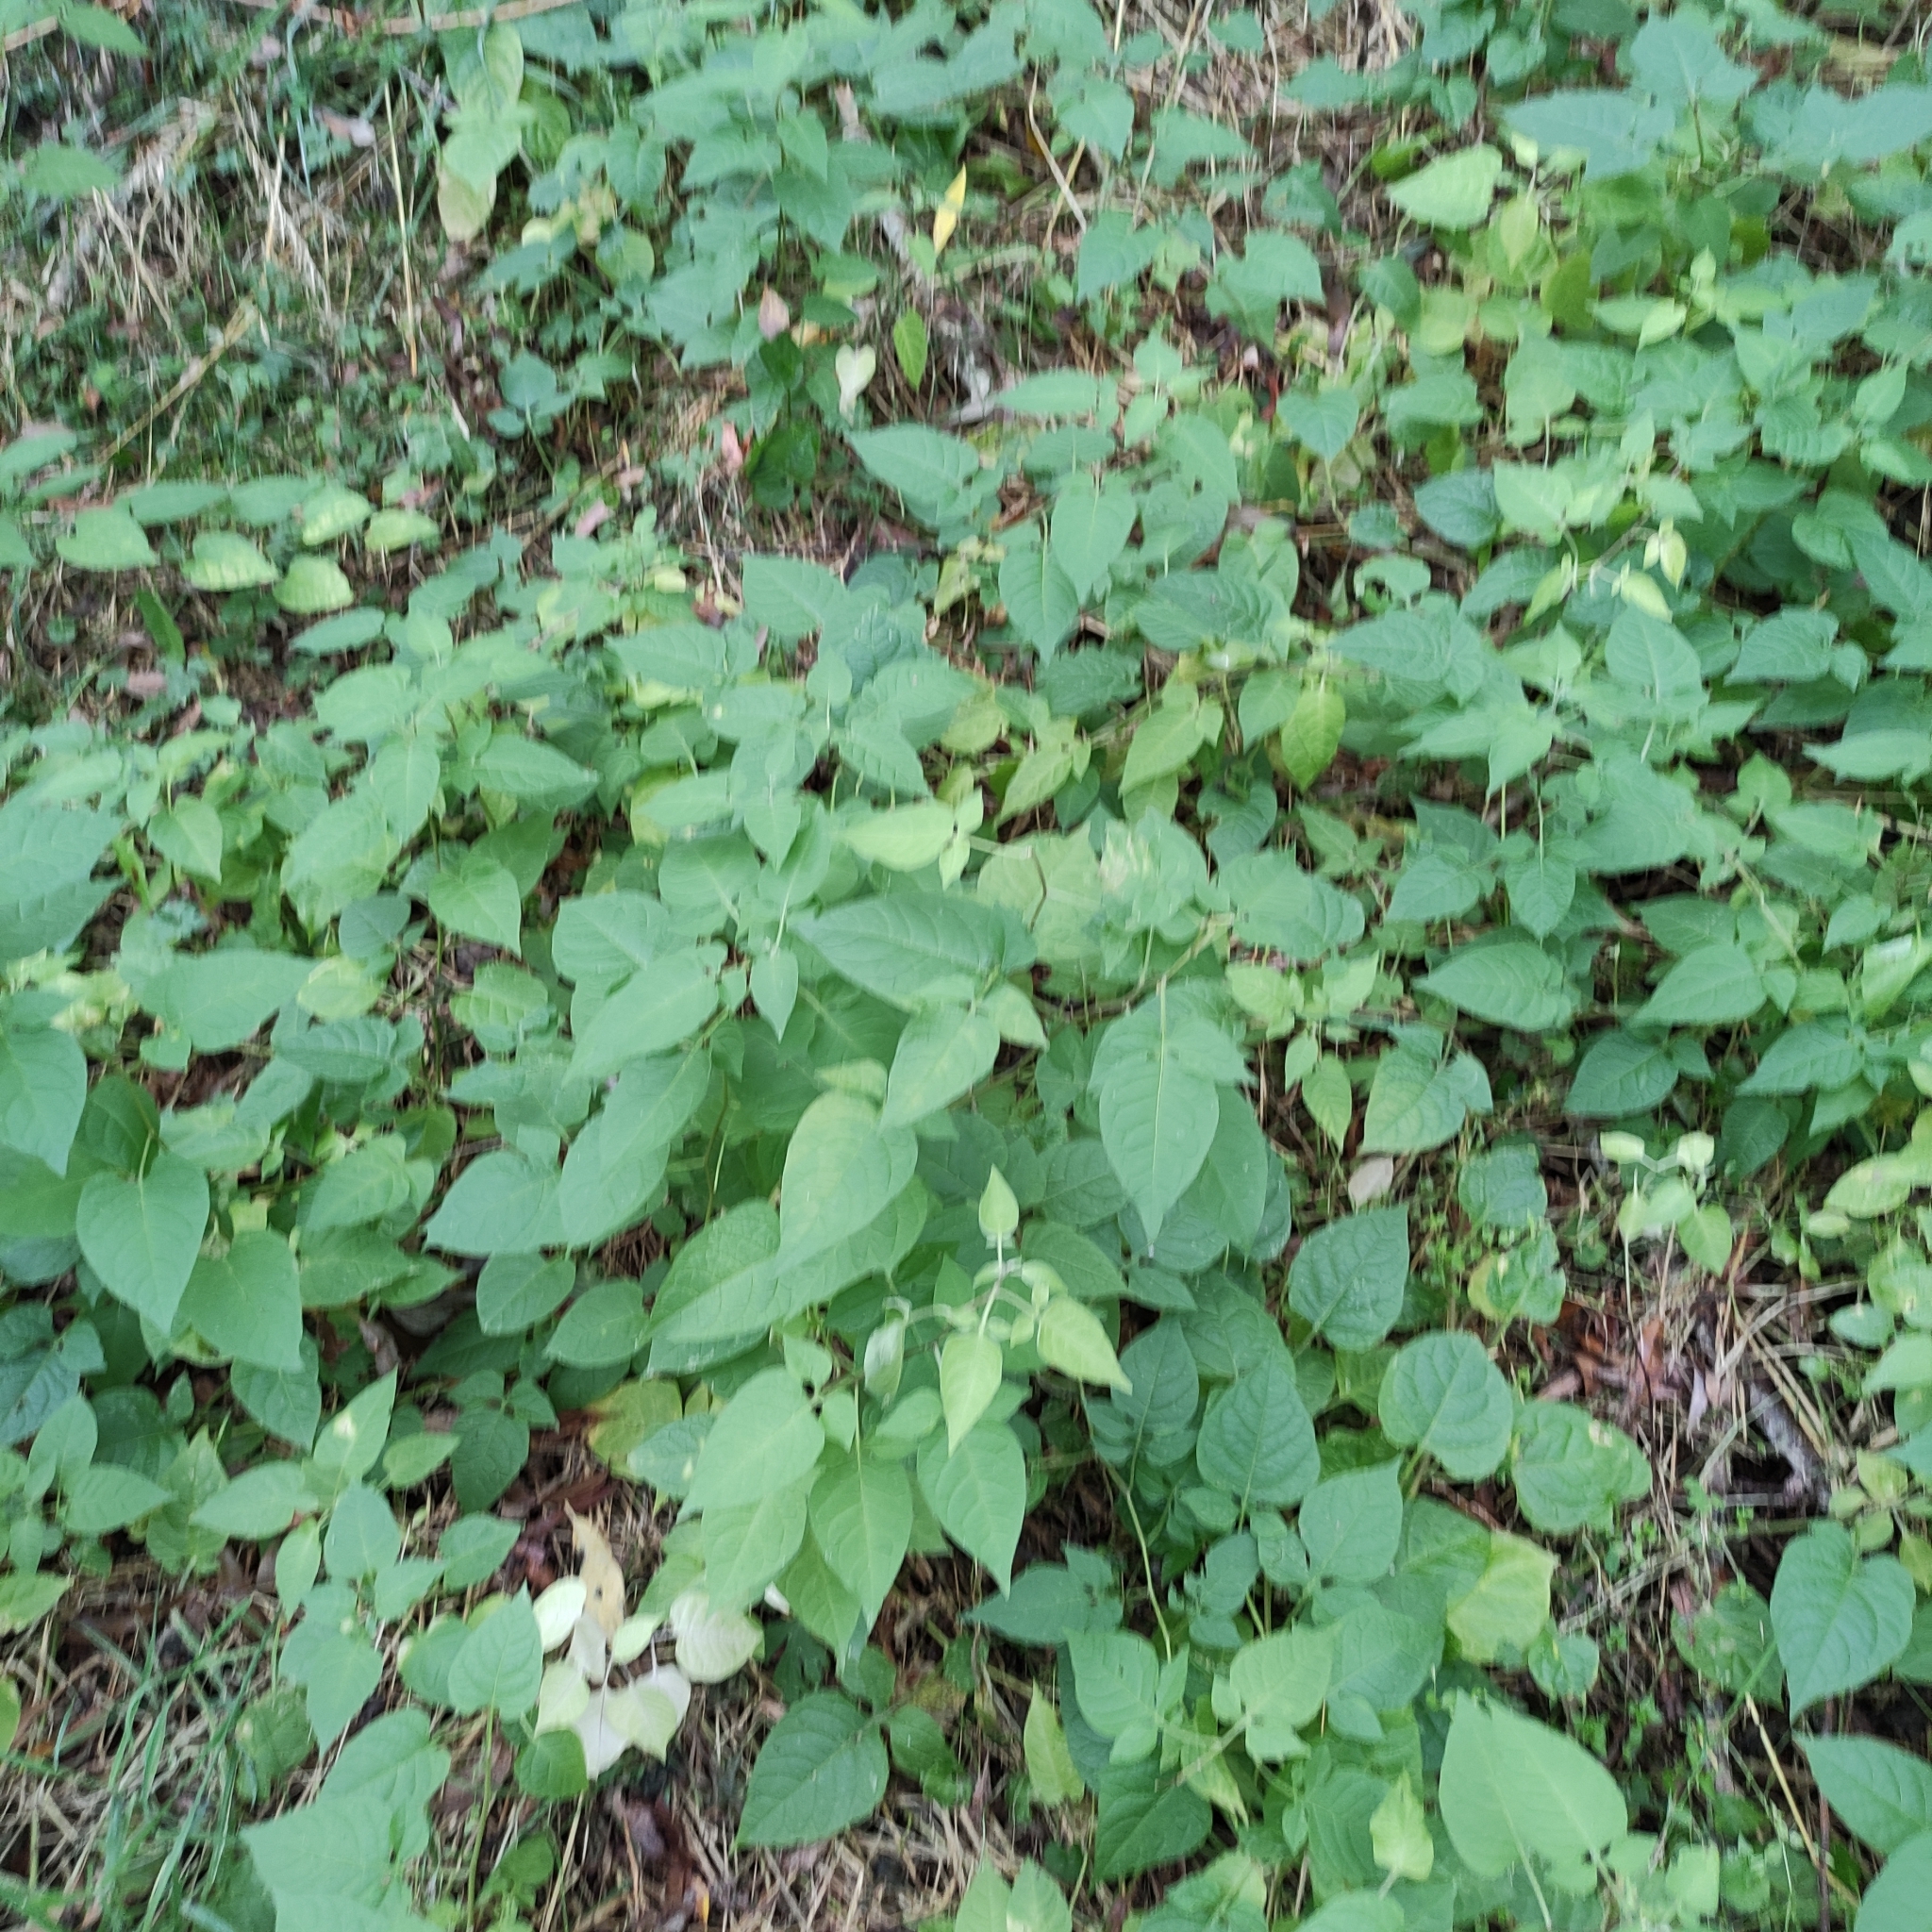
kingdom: Plantae
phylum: Tracheophyta
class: Magnoliopsida
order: Solanales
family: Solanaceae
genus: Solanum
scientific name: Solanum dulcamara
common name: Climbing nightshade
